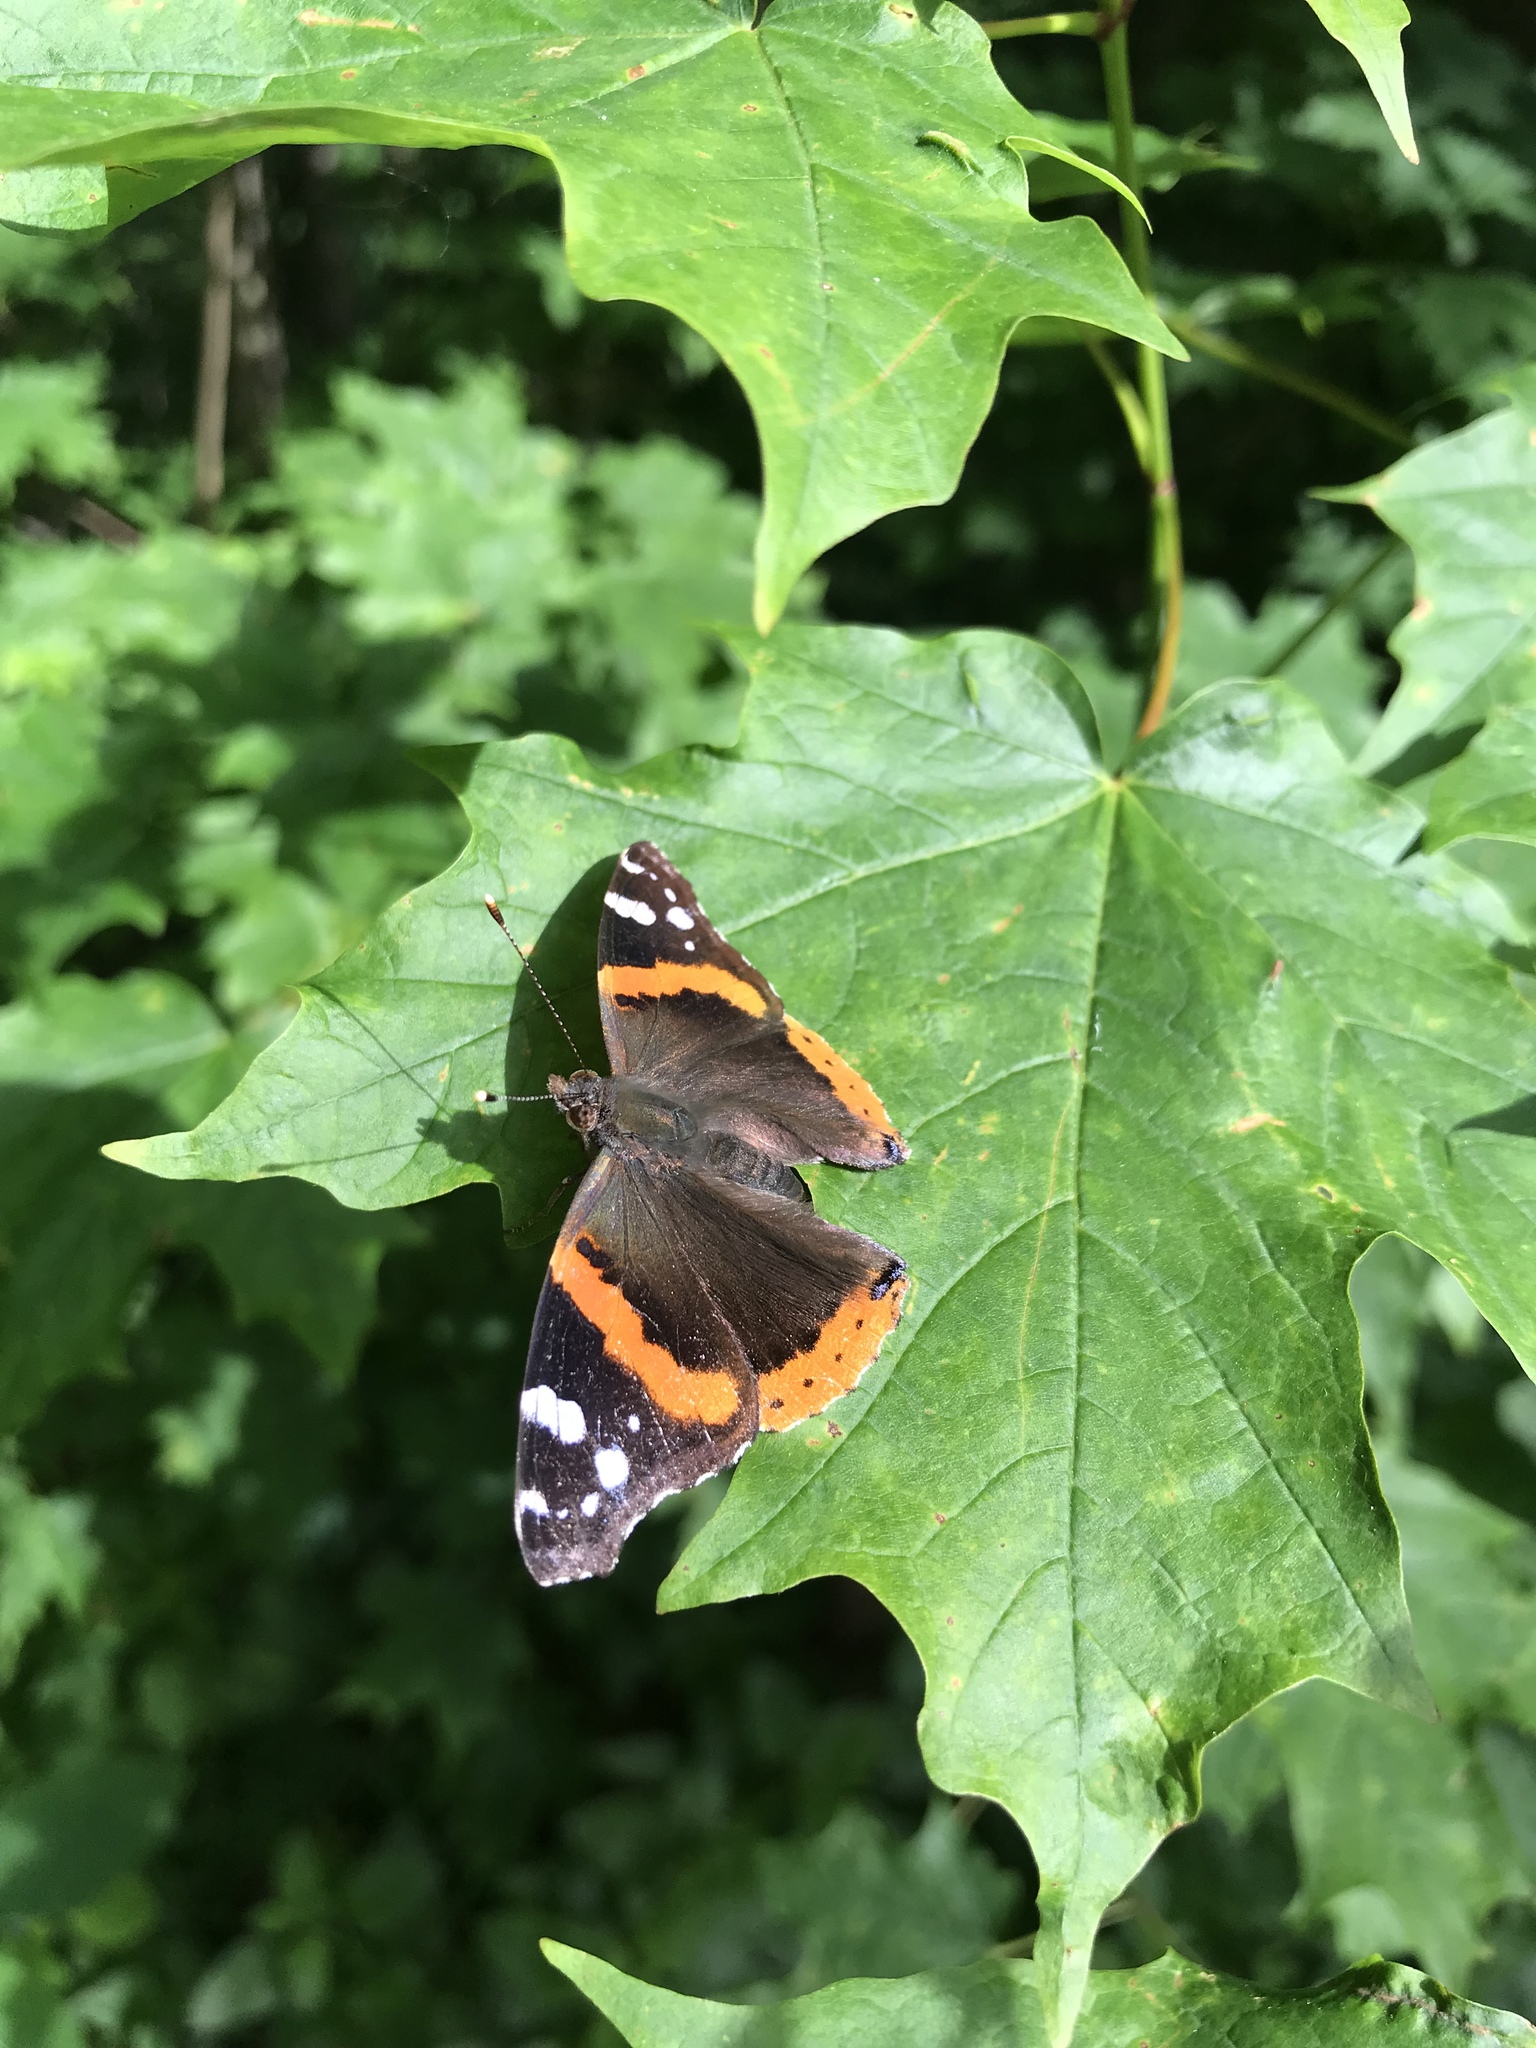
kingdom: Animalia
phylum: Arthropoda
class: Insecta
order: Lepidoptera
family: Nymphalidae
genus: Vanessa
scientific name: Vanessa atalanta
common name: Red admiral
